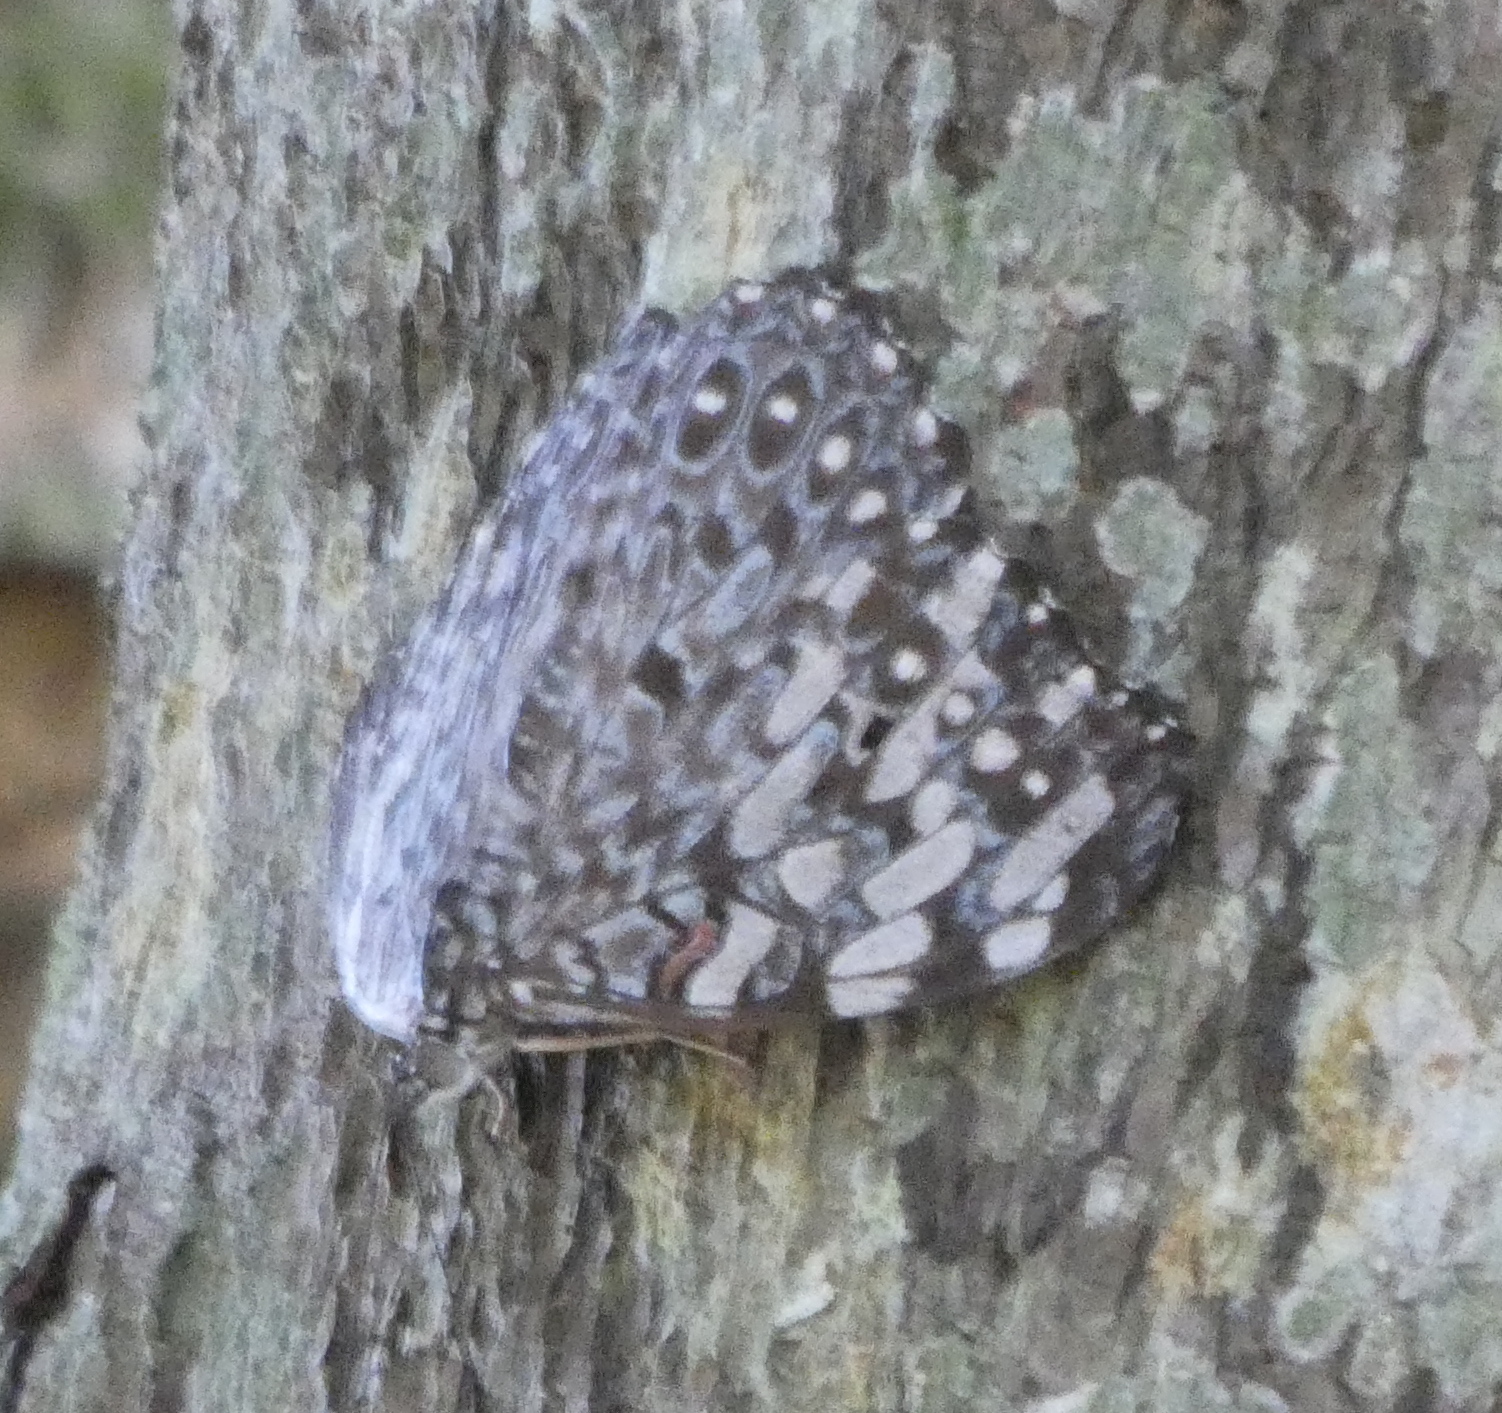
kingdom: Animalia
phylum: Arthropoda
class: Insecta
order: Lepidoptera
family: Nymphalidae
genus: Hamadryas
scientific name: Hamadryas feronia
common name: Variable cracker
